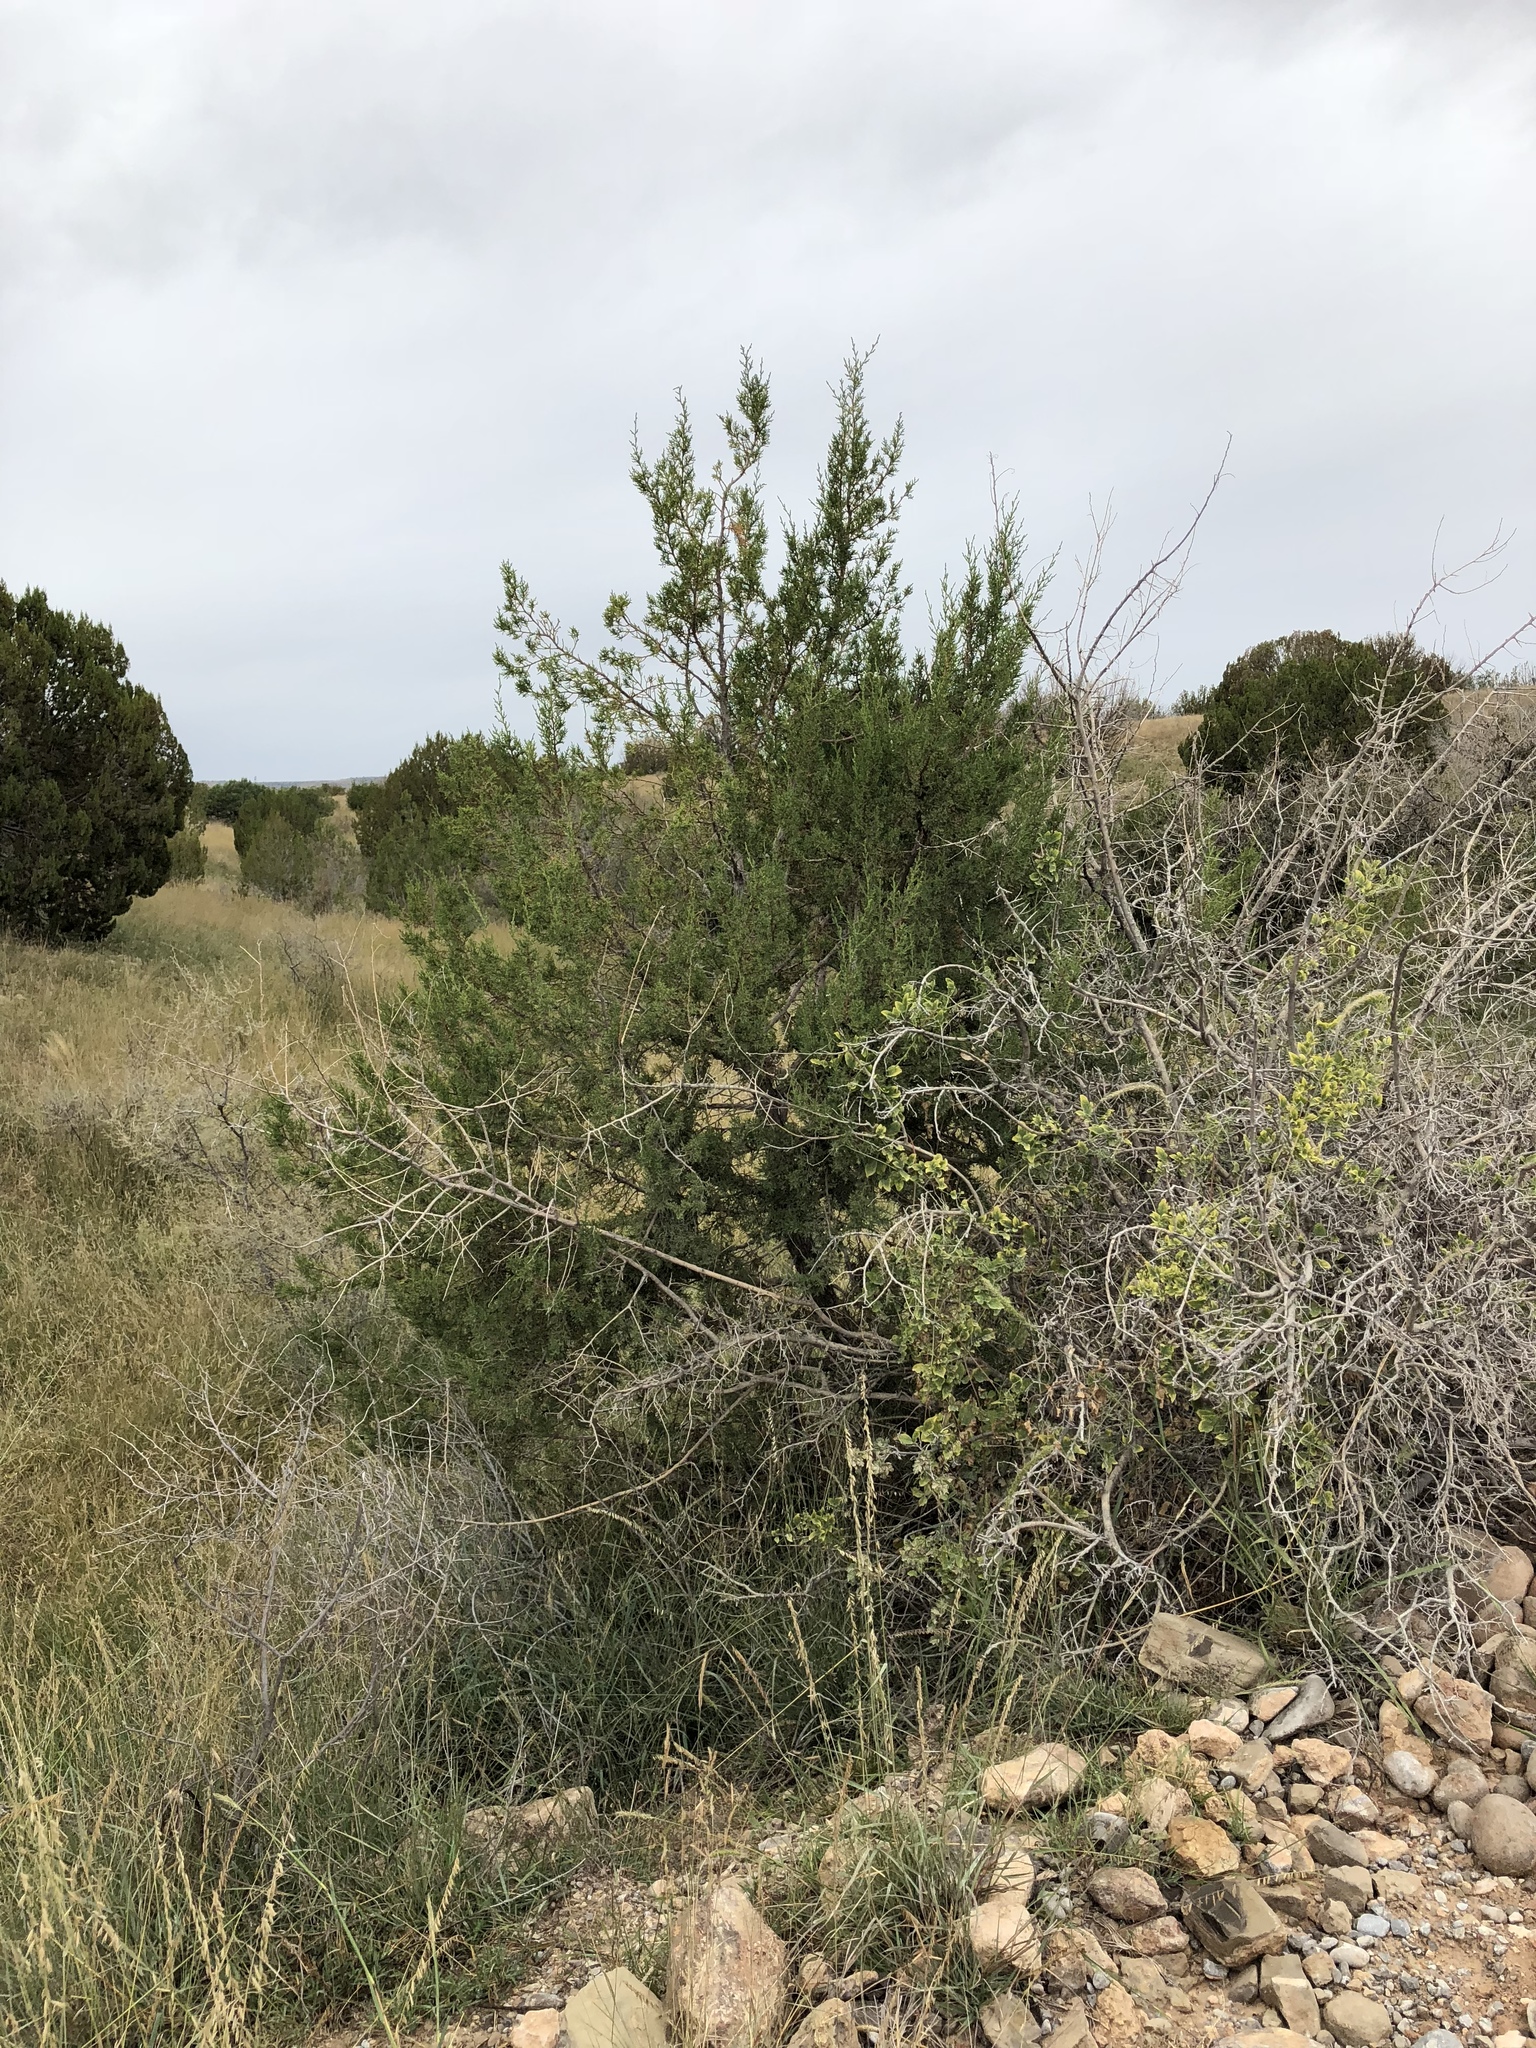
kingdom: Plantae
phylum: Tracheophyta
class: Pinopsida
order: Pinales
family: Cupressaceae
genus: Juniperus
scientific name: Juniperus monosperma
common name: One-seed juniper
